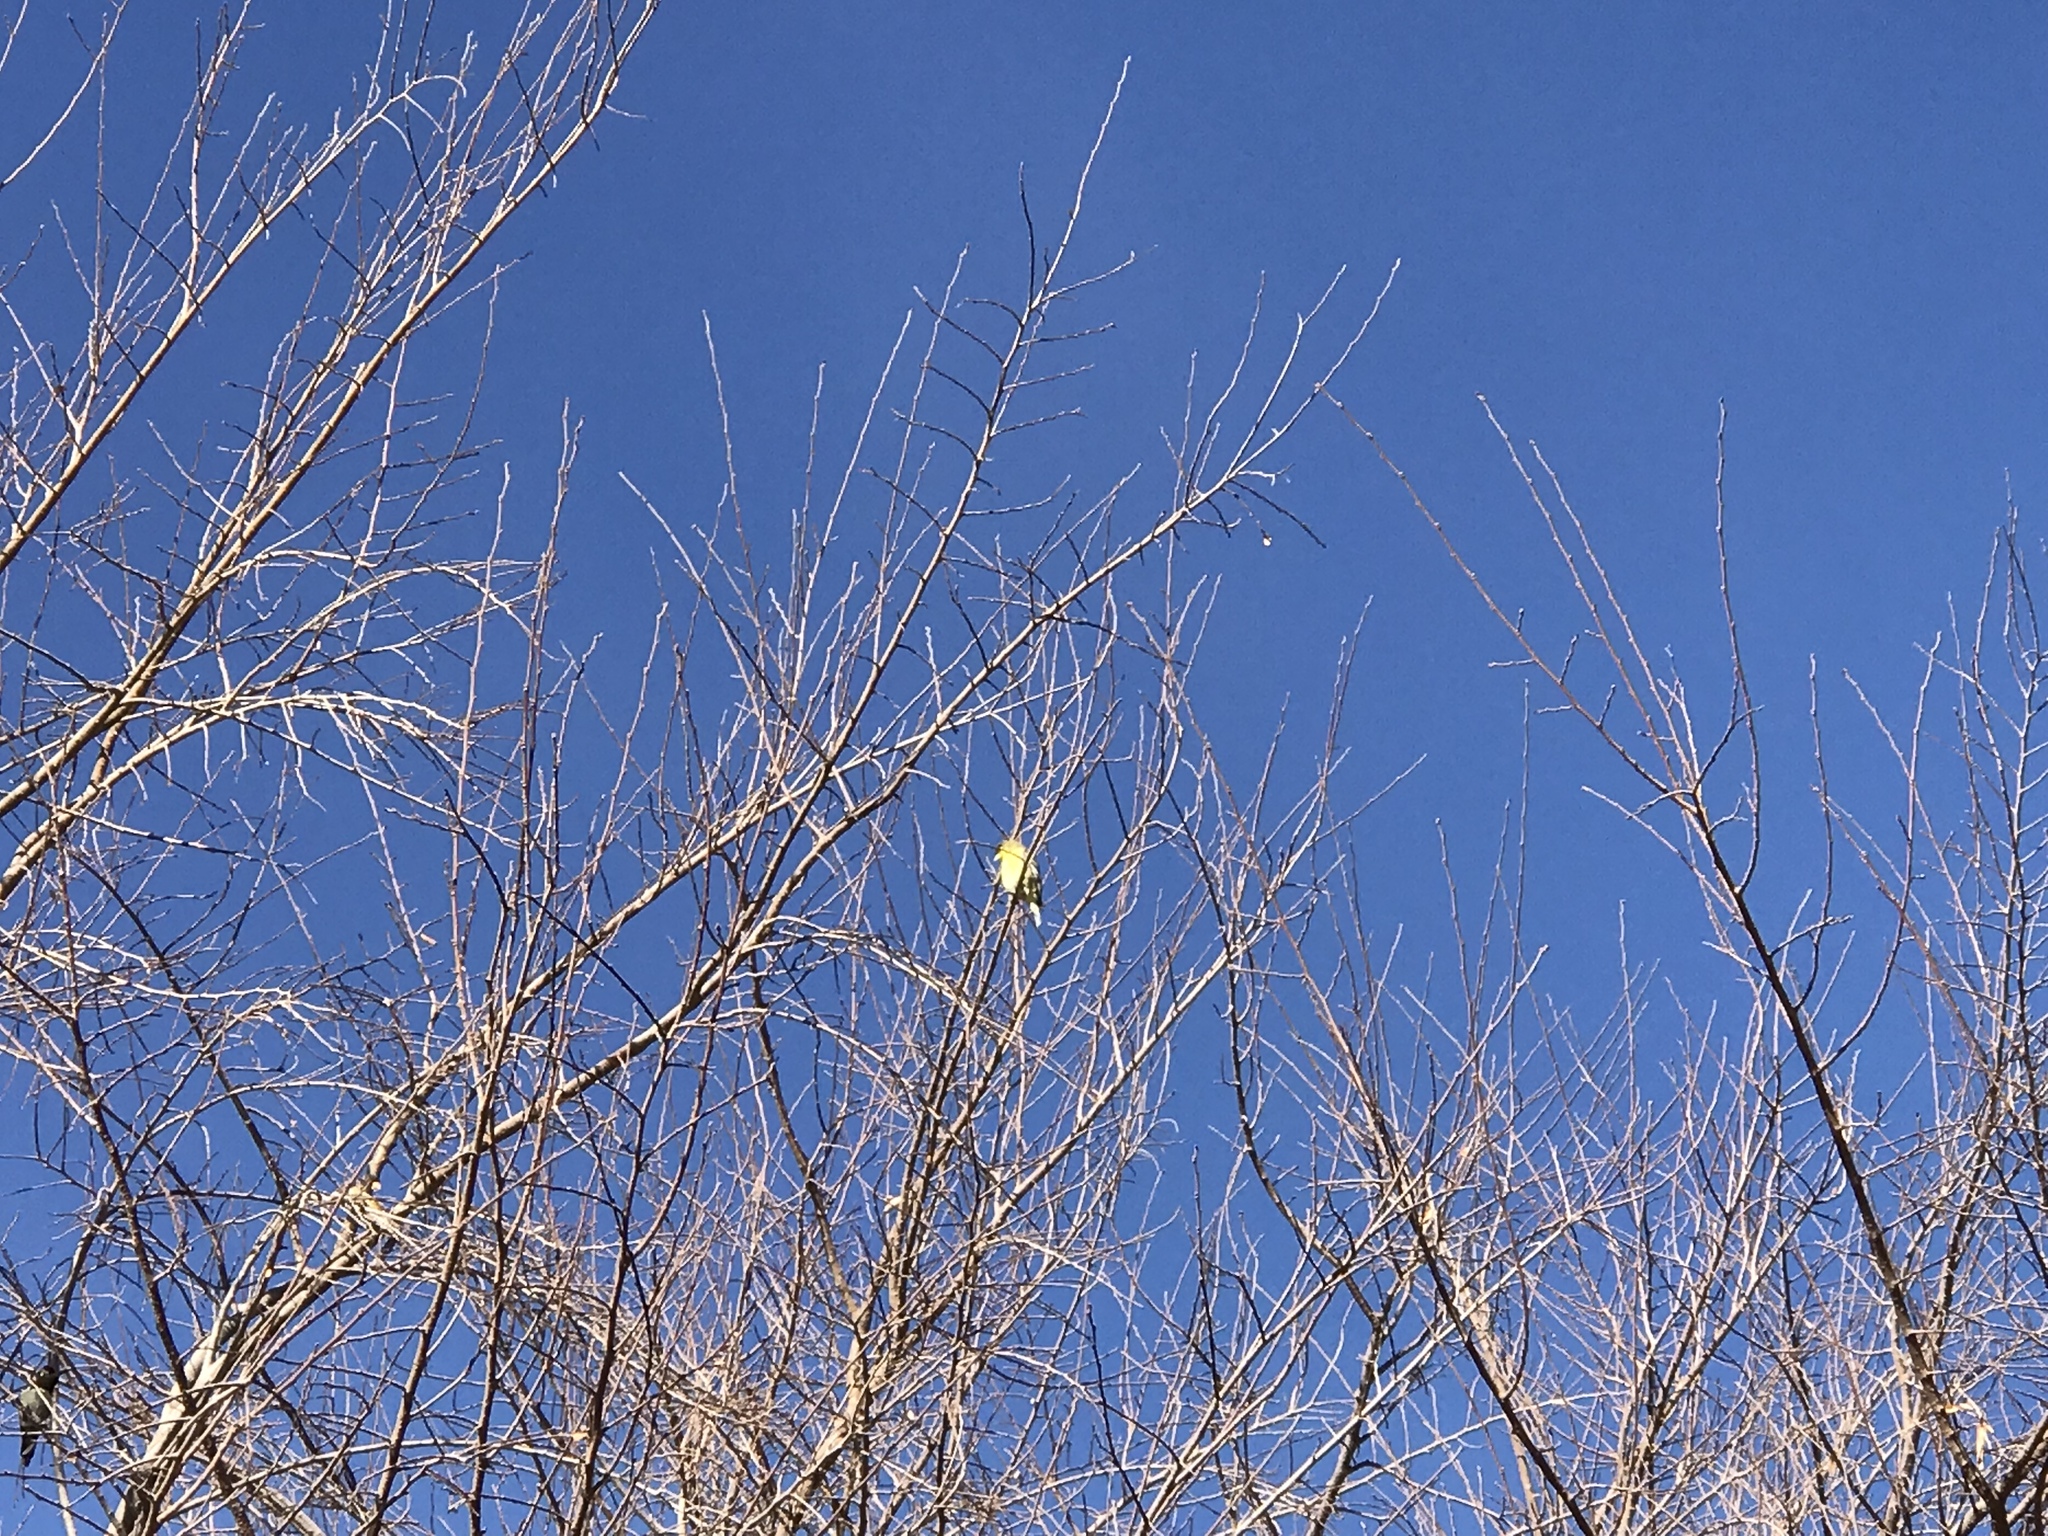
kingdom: Animalia
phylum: Chordata
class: Aves
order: Passeriformes
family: Fringillidae
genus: Spinus
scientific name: Spinus psaltria
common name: Lesser goldfinch
